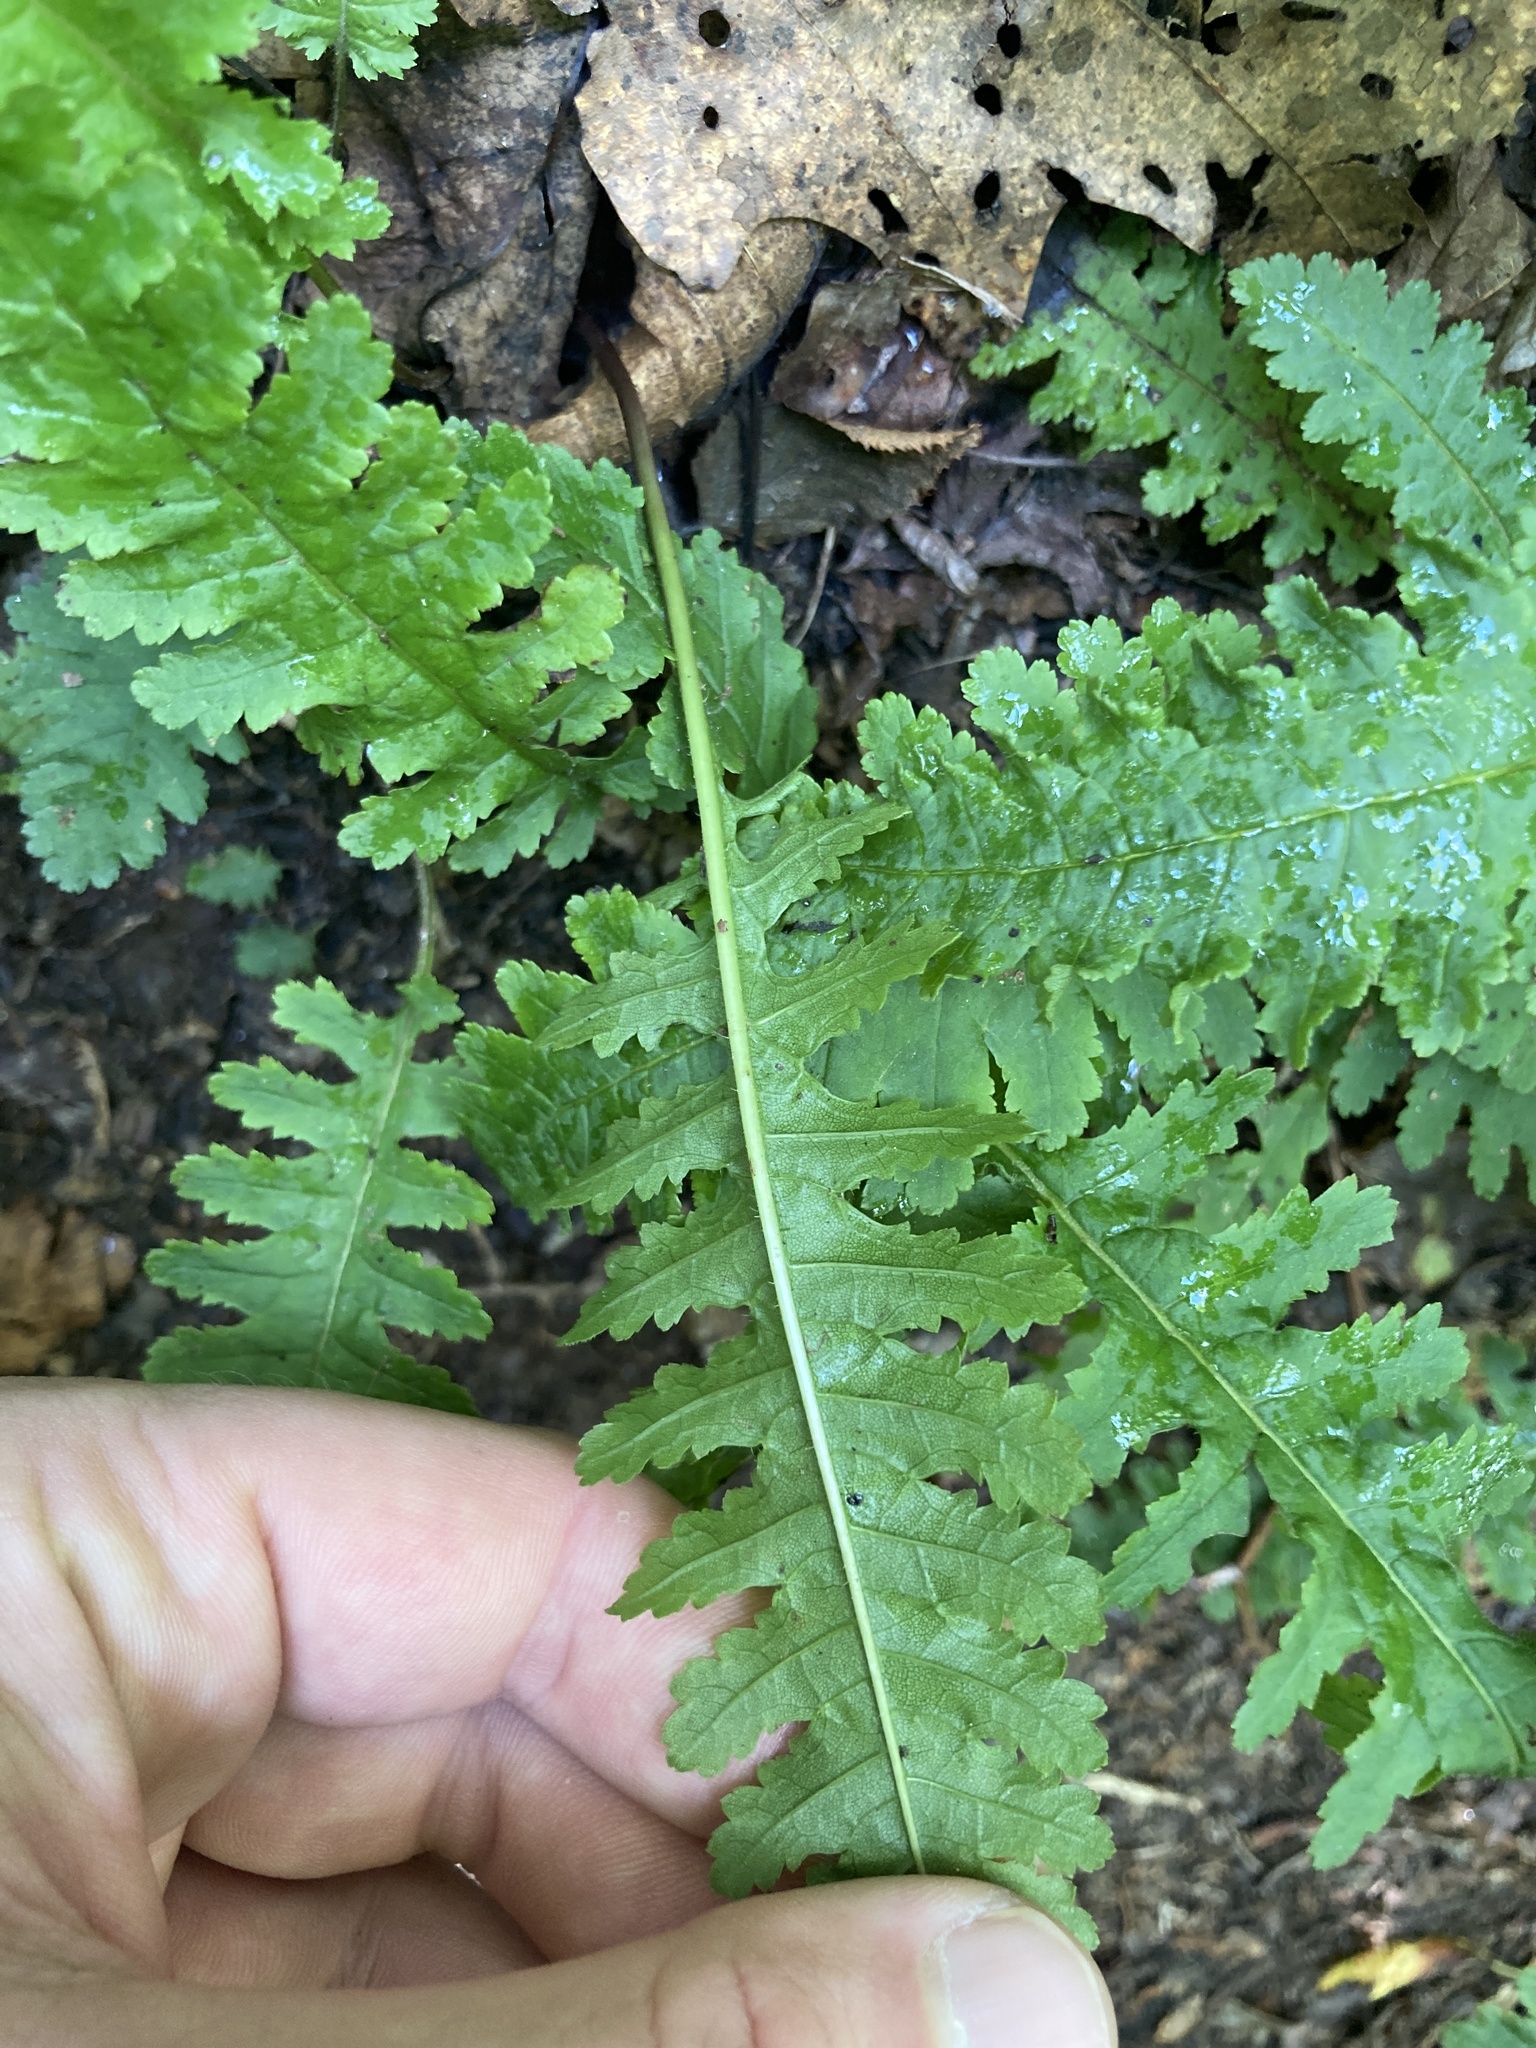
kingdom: Plantae
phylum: Tracheophyta
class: Magnoliopsida
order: Lamiales
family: Orobanchaceae
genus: Pedicularis
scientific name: Pedicularis canadensis
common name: Early lousewort
